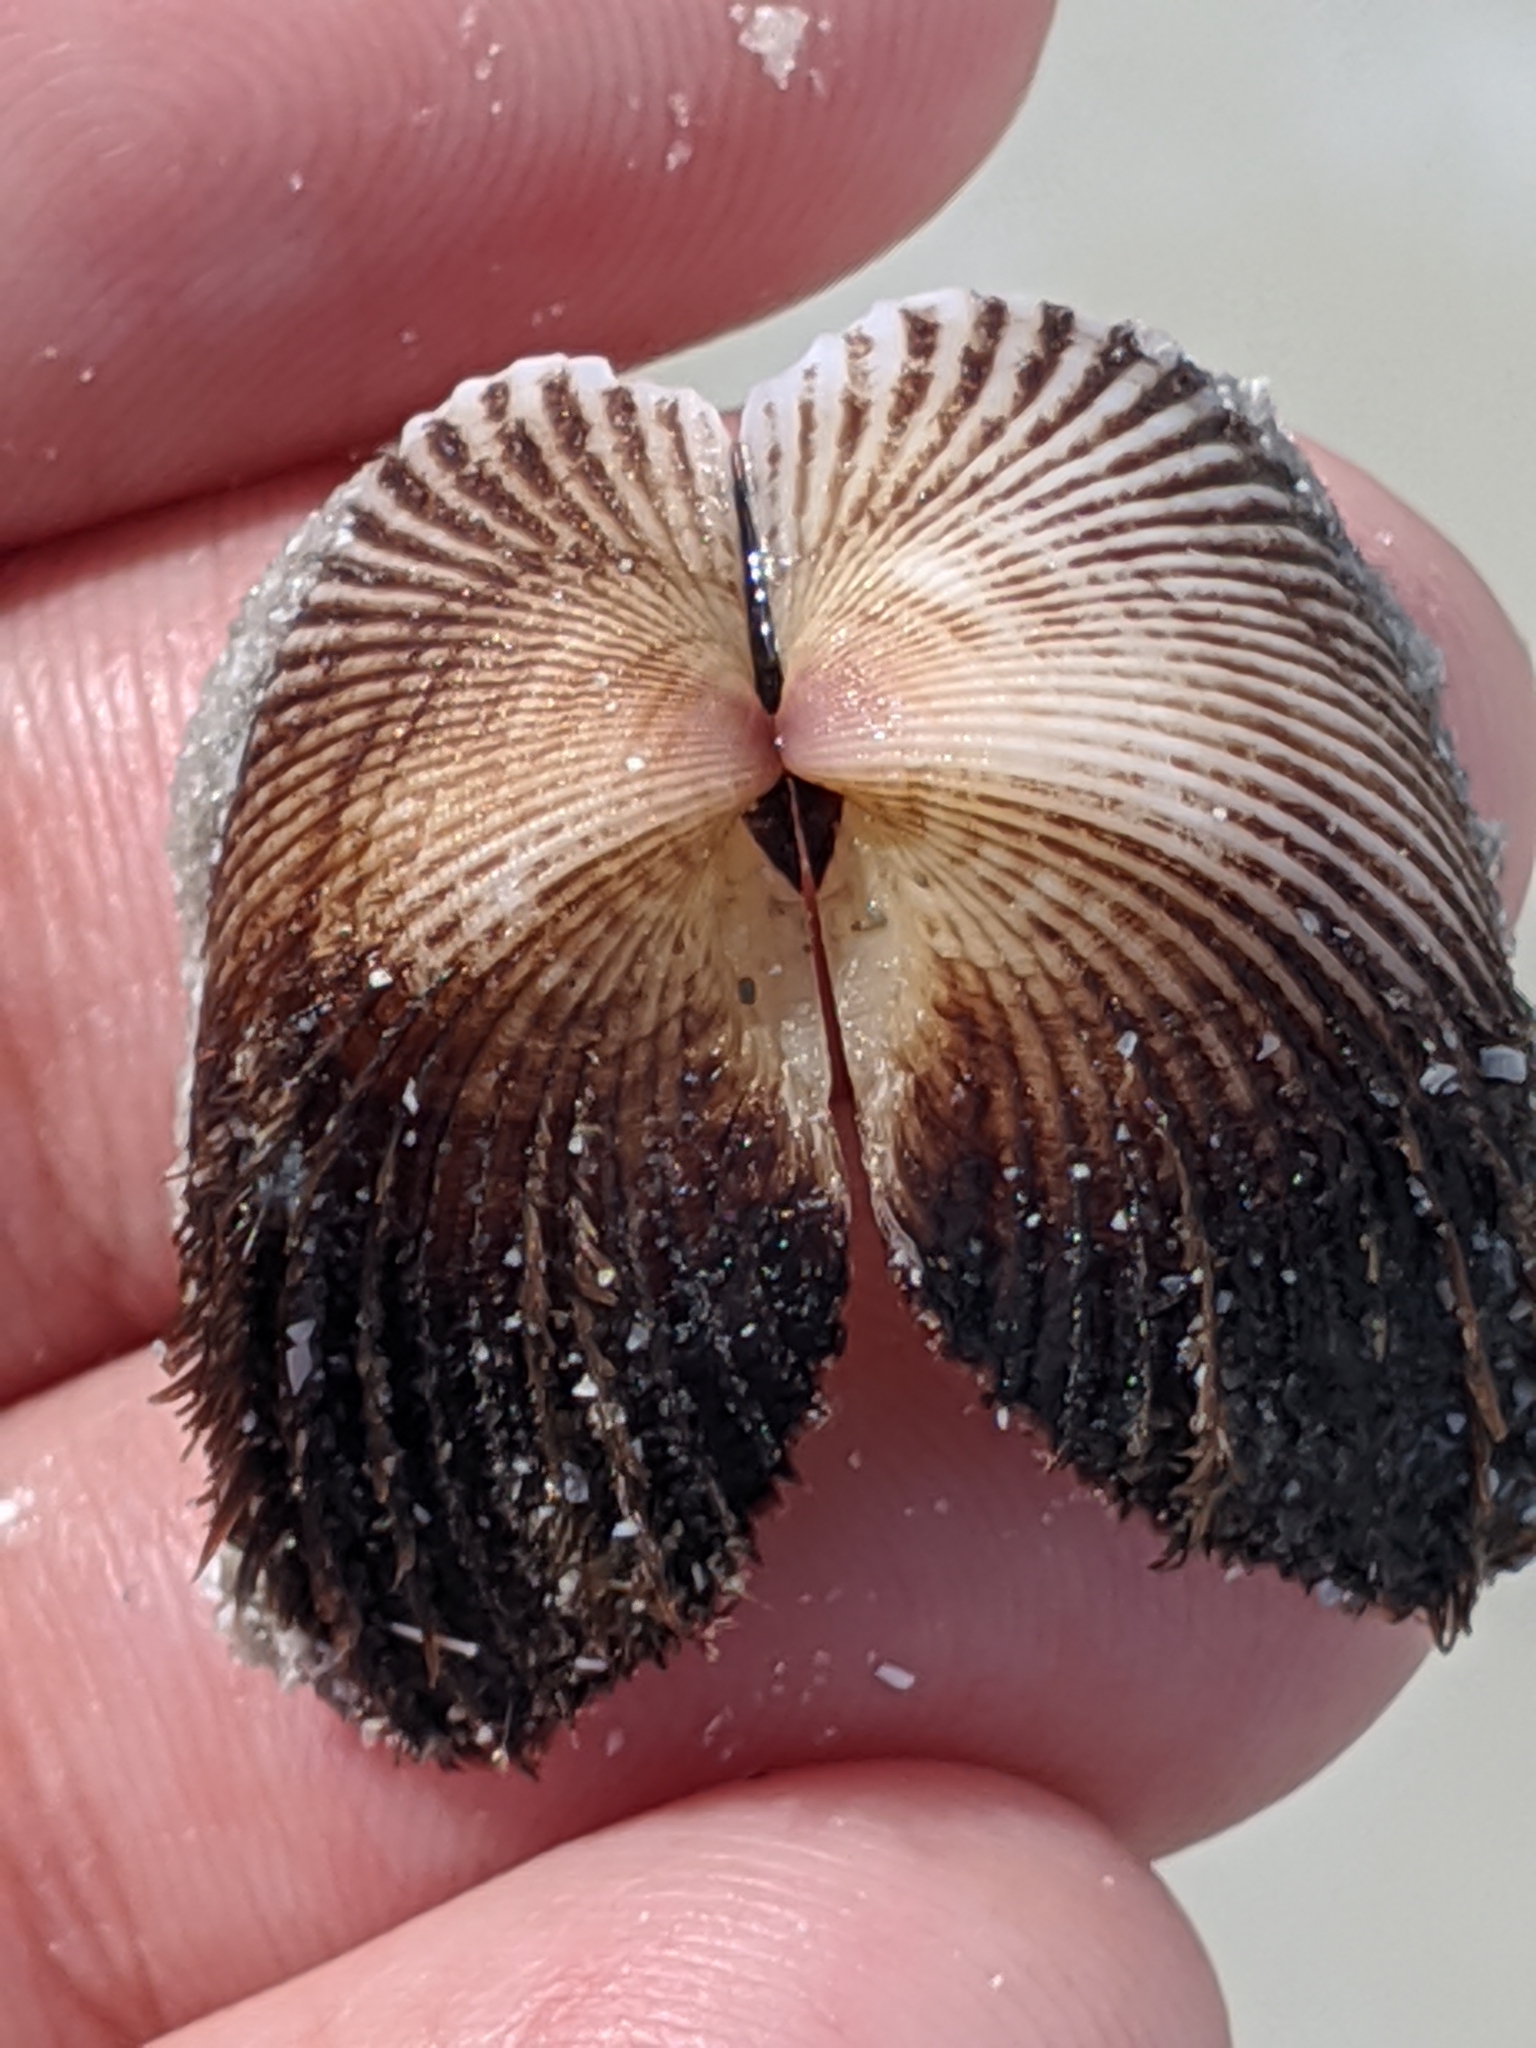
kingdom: Animalia
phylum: Mollusca
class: Bivalvia
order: Arcida
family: Noetiidae
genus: Noetia
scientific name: Noetia ponderosa
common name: Ponderous ark
